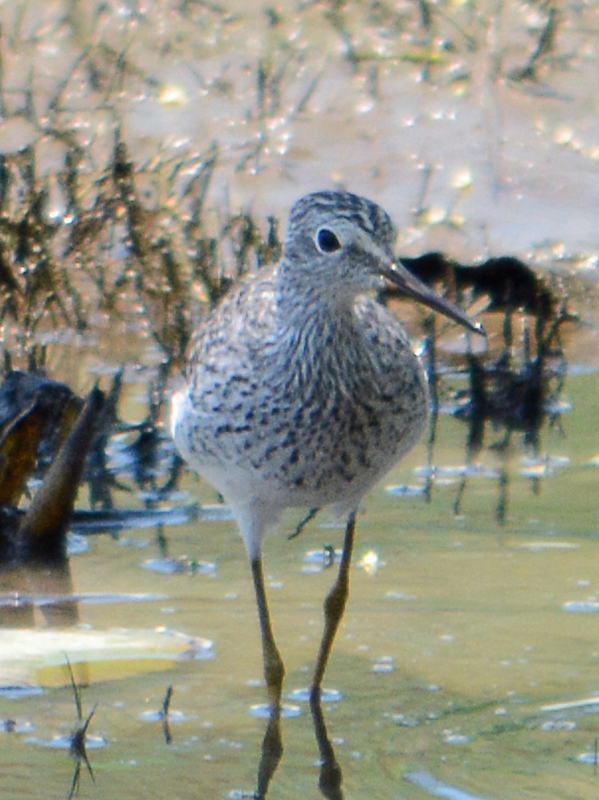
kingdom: Animalia
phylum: Chordata
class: Aves
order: Charadriiformes
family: Scolopacidae
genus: Tringa
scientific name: Tringa flavipes
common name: Lesser yellowlegs
